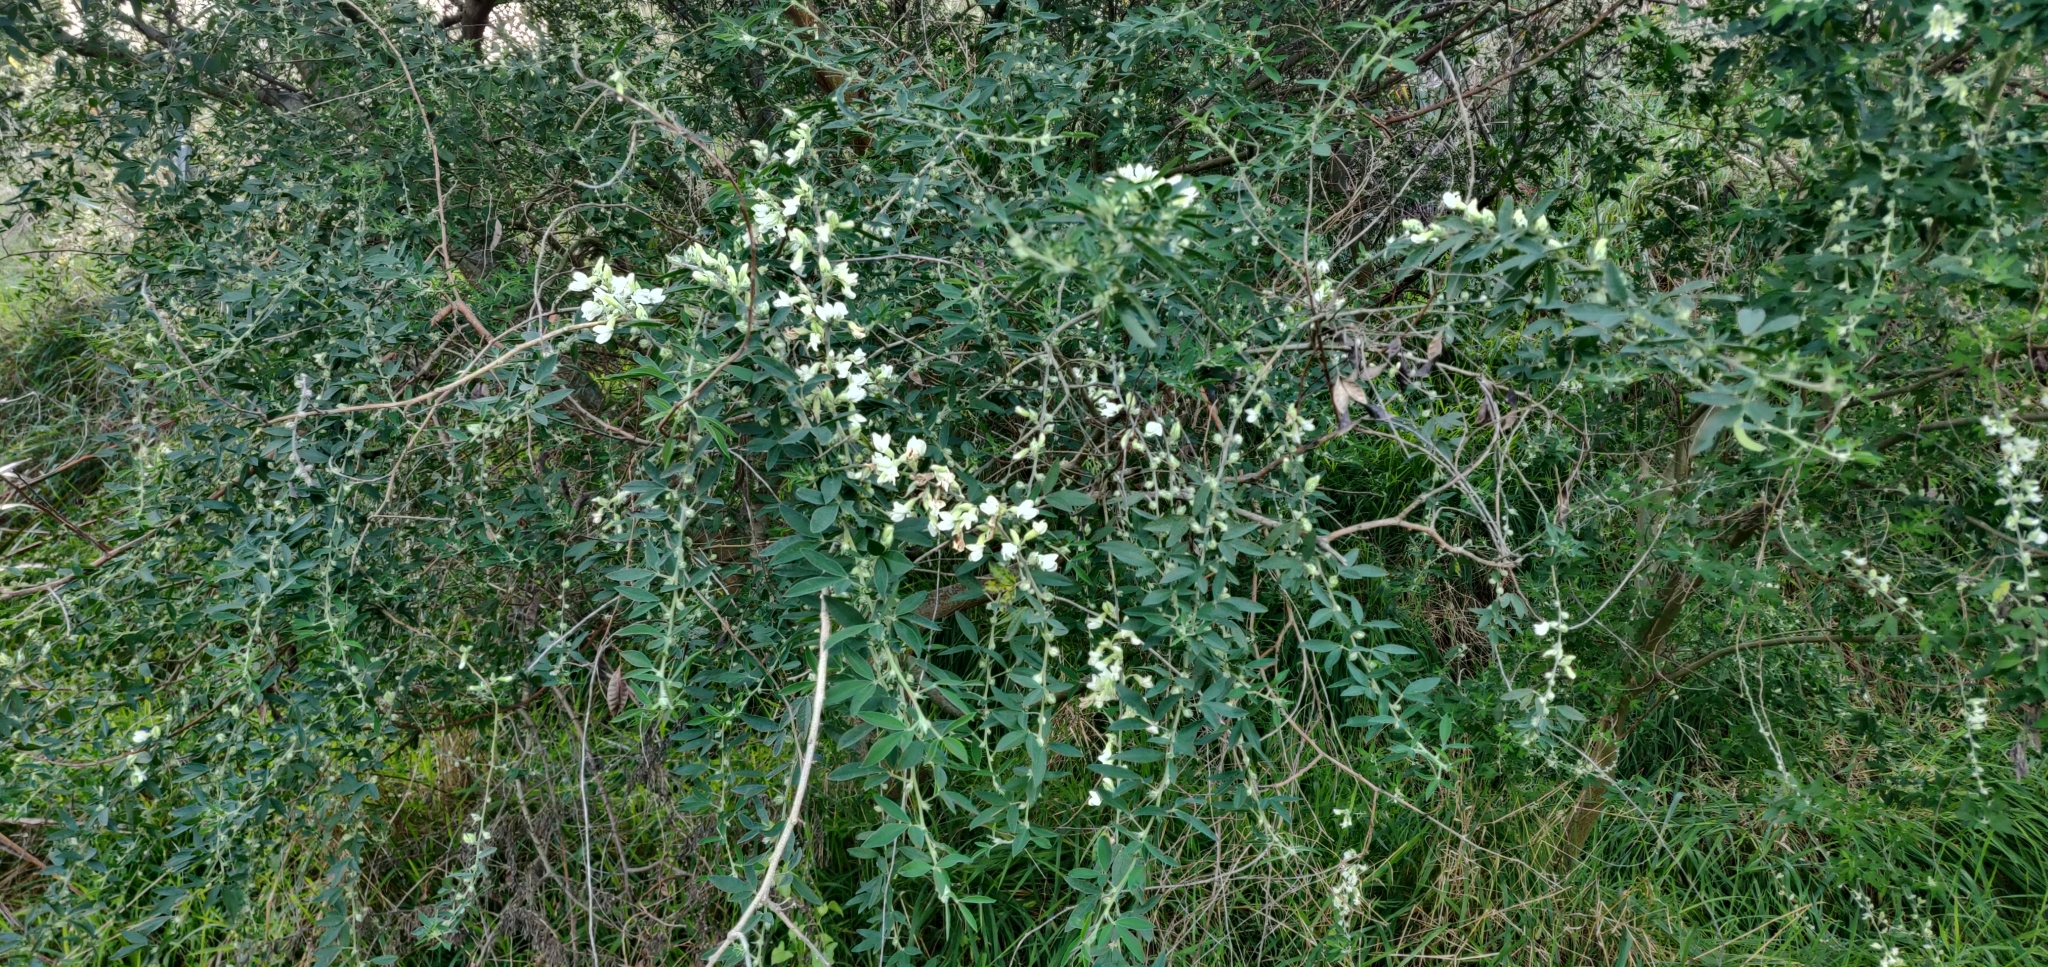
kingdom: Plantae
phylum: Tracheophyta
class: Magnoliopsida
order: Fabales
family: Fabaceae
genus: Chamaecytisus
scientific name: Chamaecytisus prolifer
